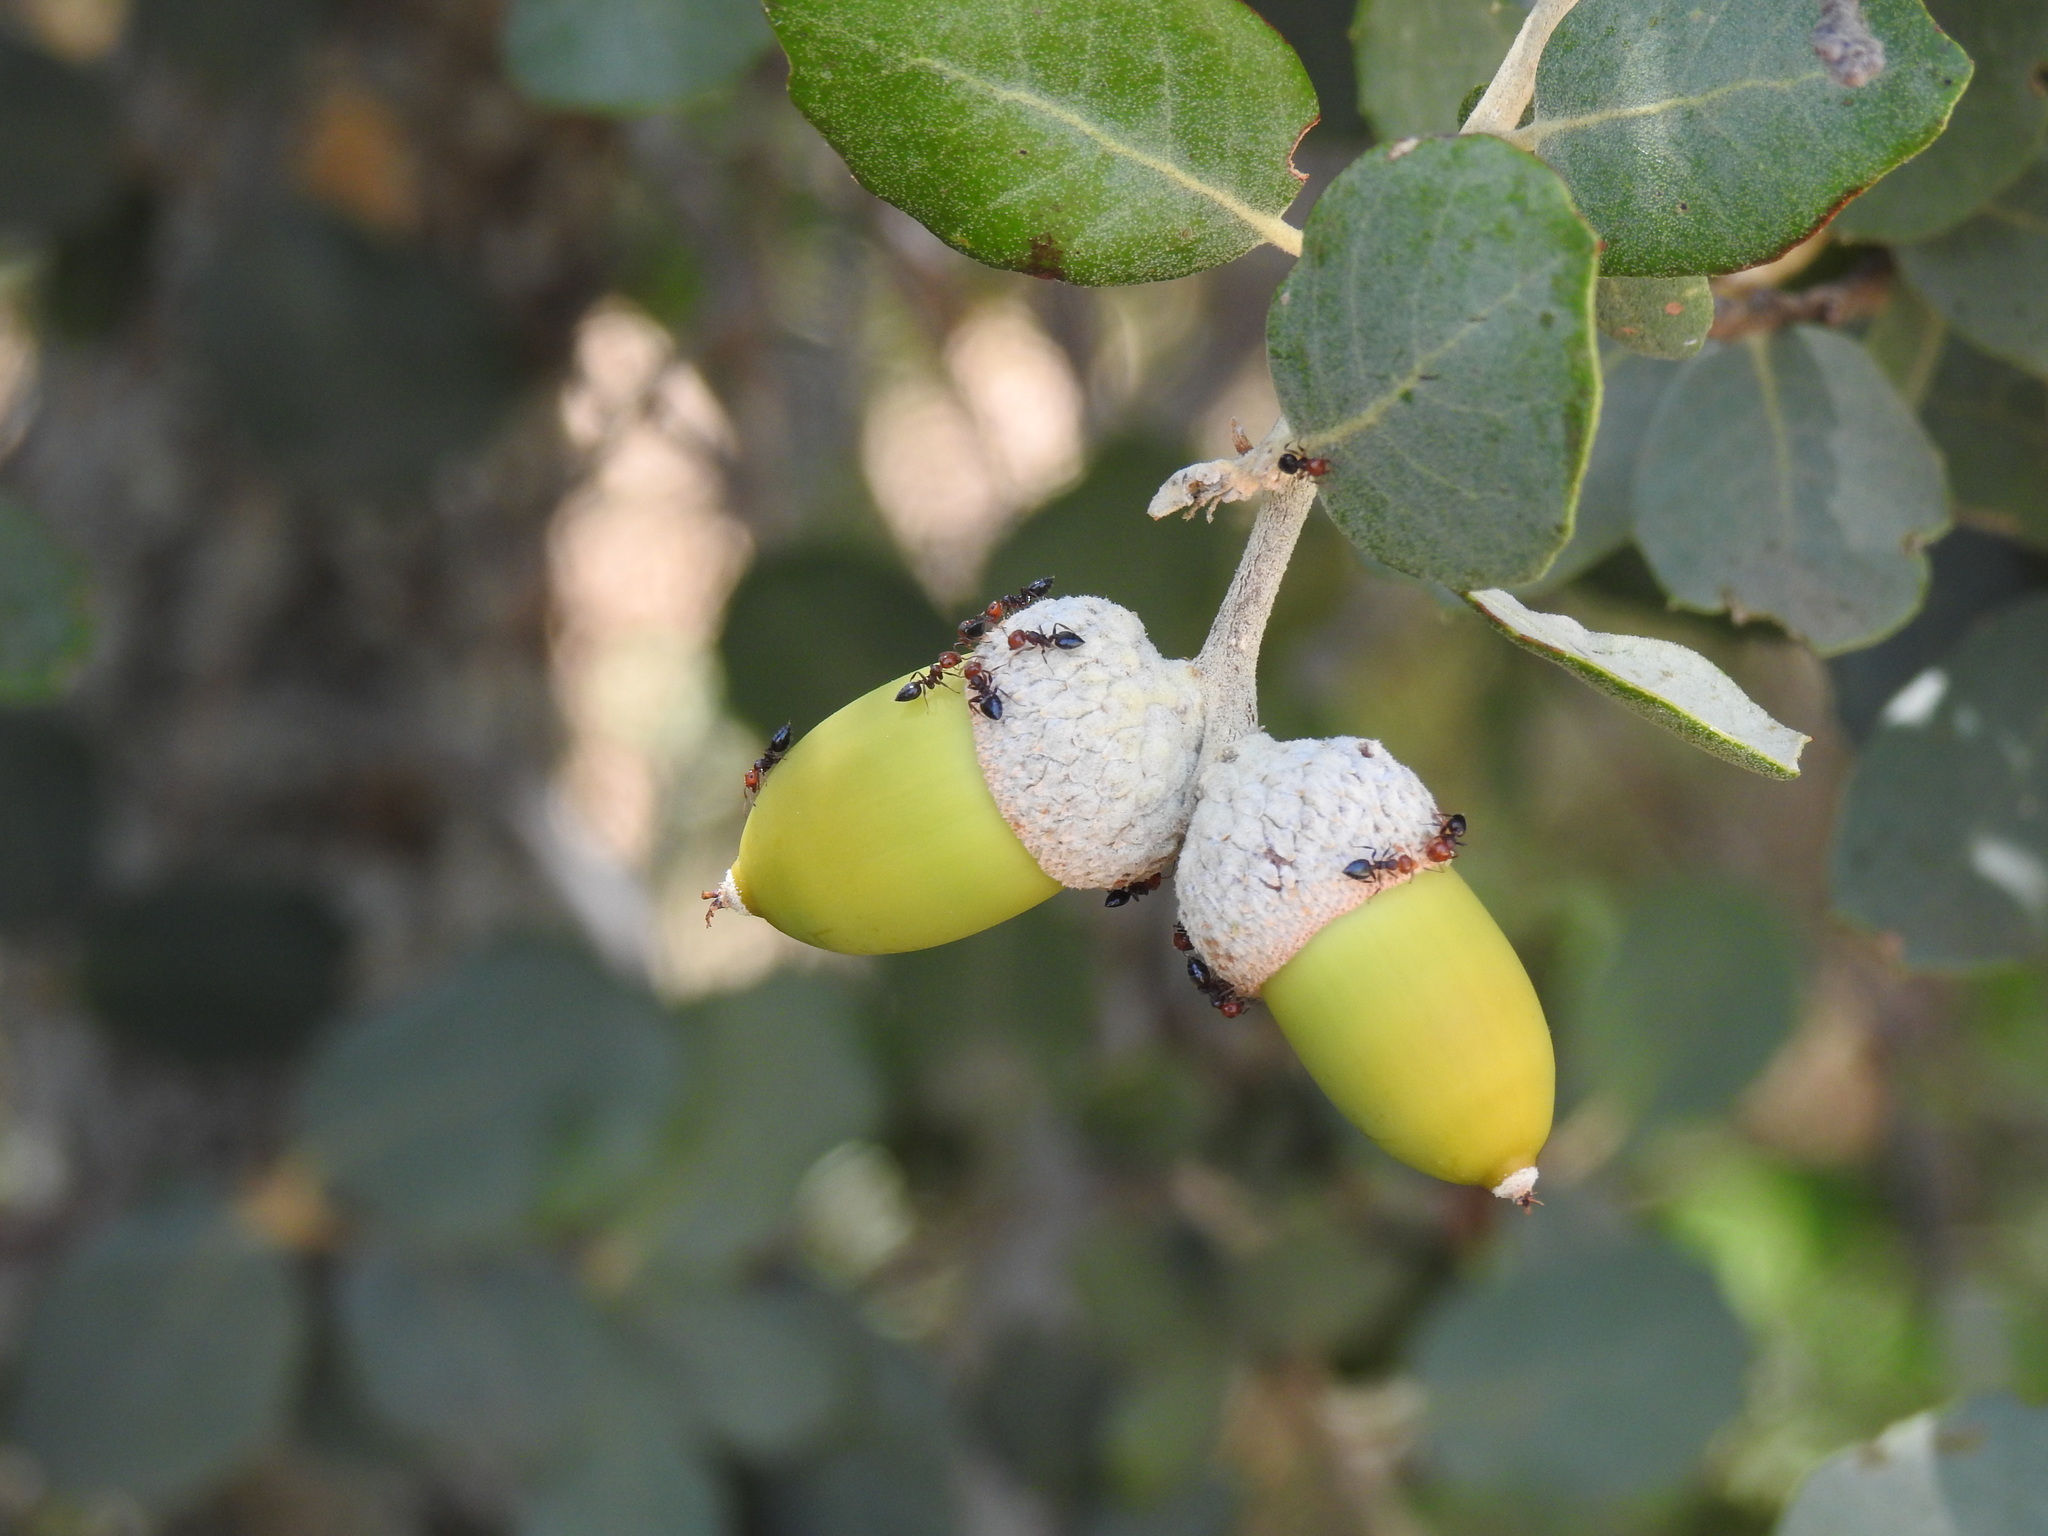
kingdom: Animalia
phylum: Arthropoda
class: Insecta
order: Hymenoptera
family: Formicidae
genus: Crematogaster
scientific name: Crematogaster scutellaris
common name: Fourmi du liège
